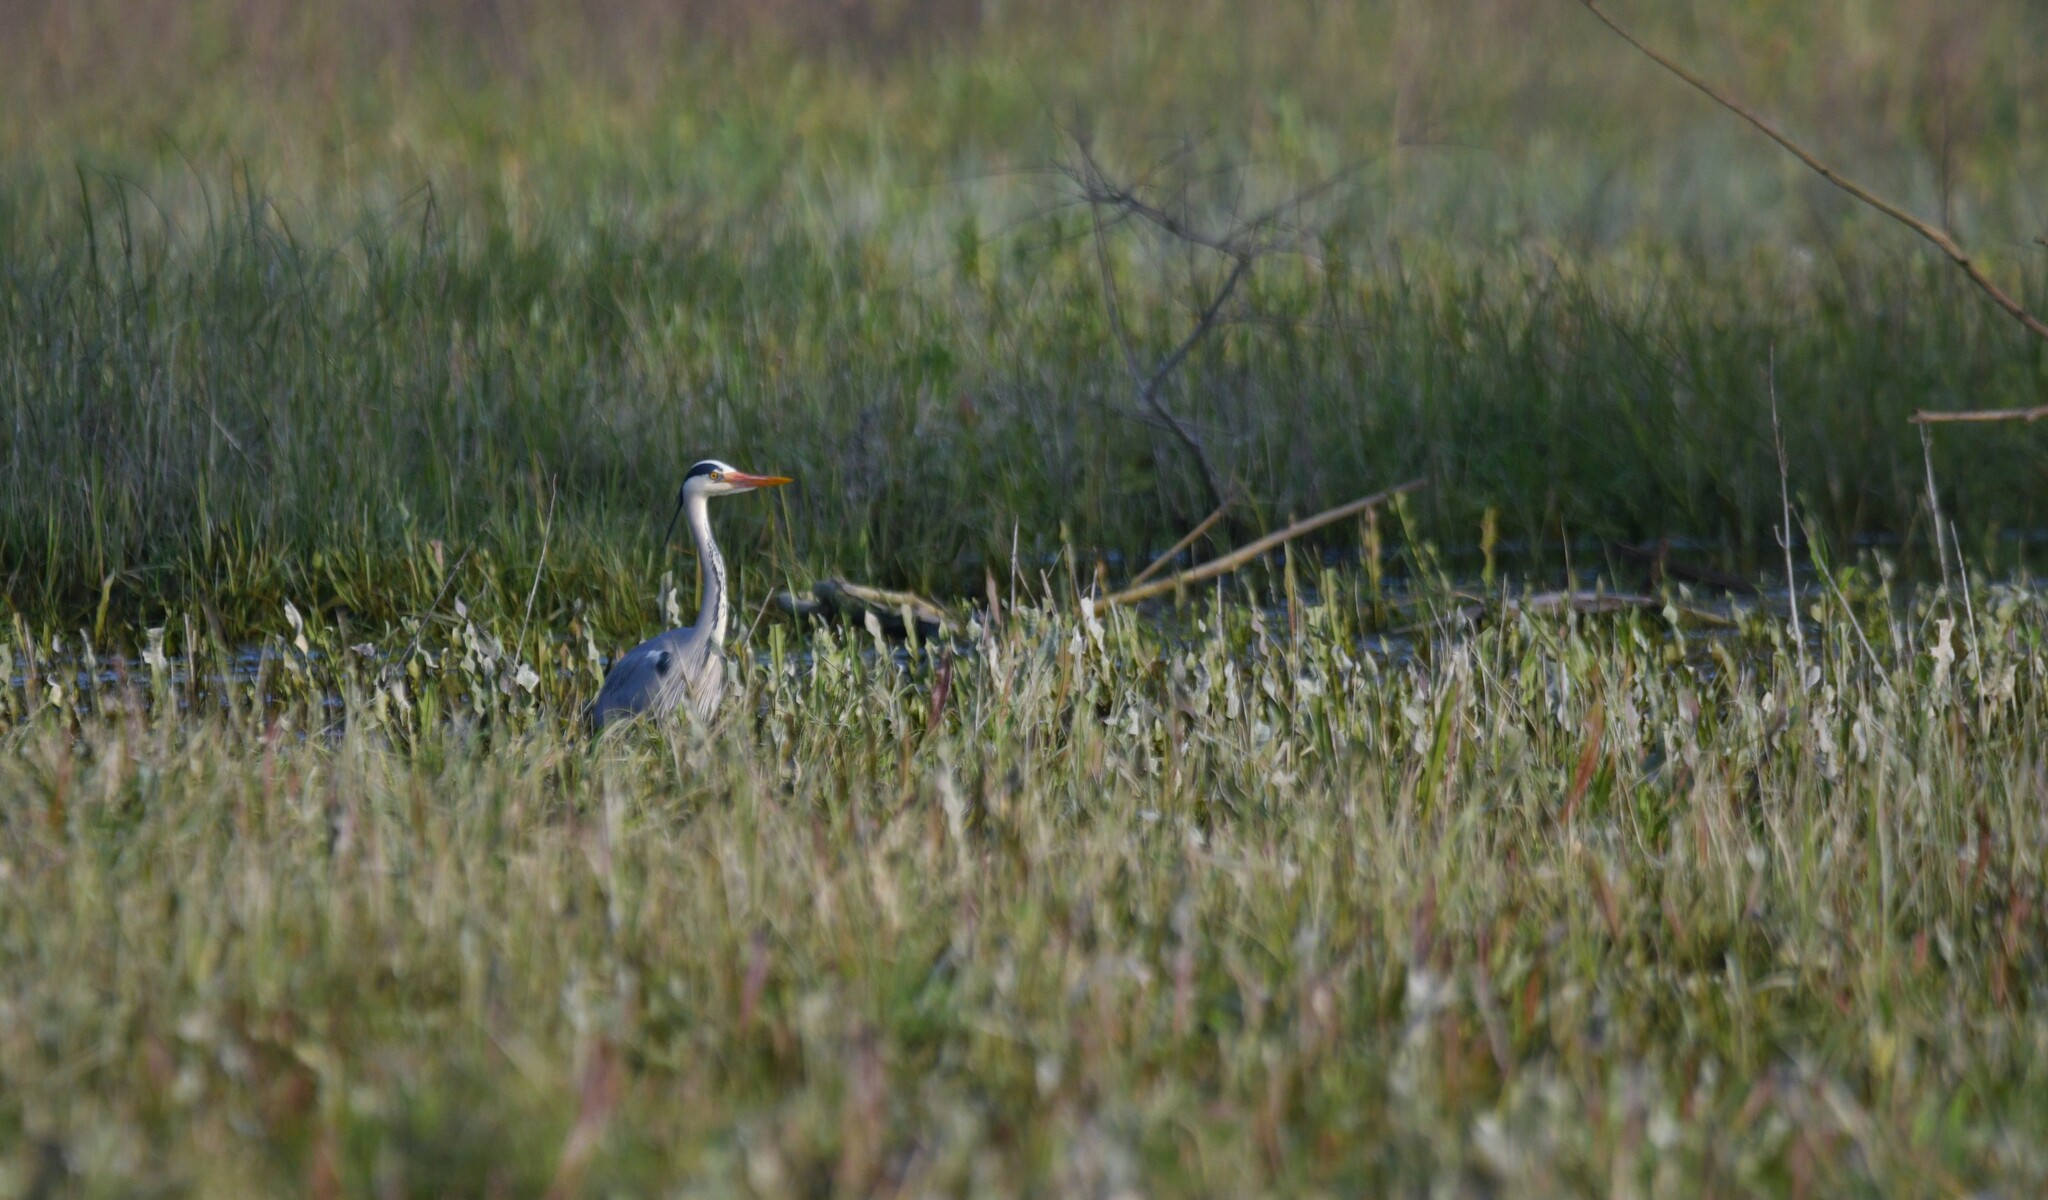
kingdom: Animalia
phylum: Chordata
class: Aves
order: Pelecaniformes
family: Ardeidae
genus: Ardea
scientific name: Ardea cinerea
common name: Grey heron
